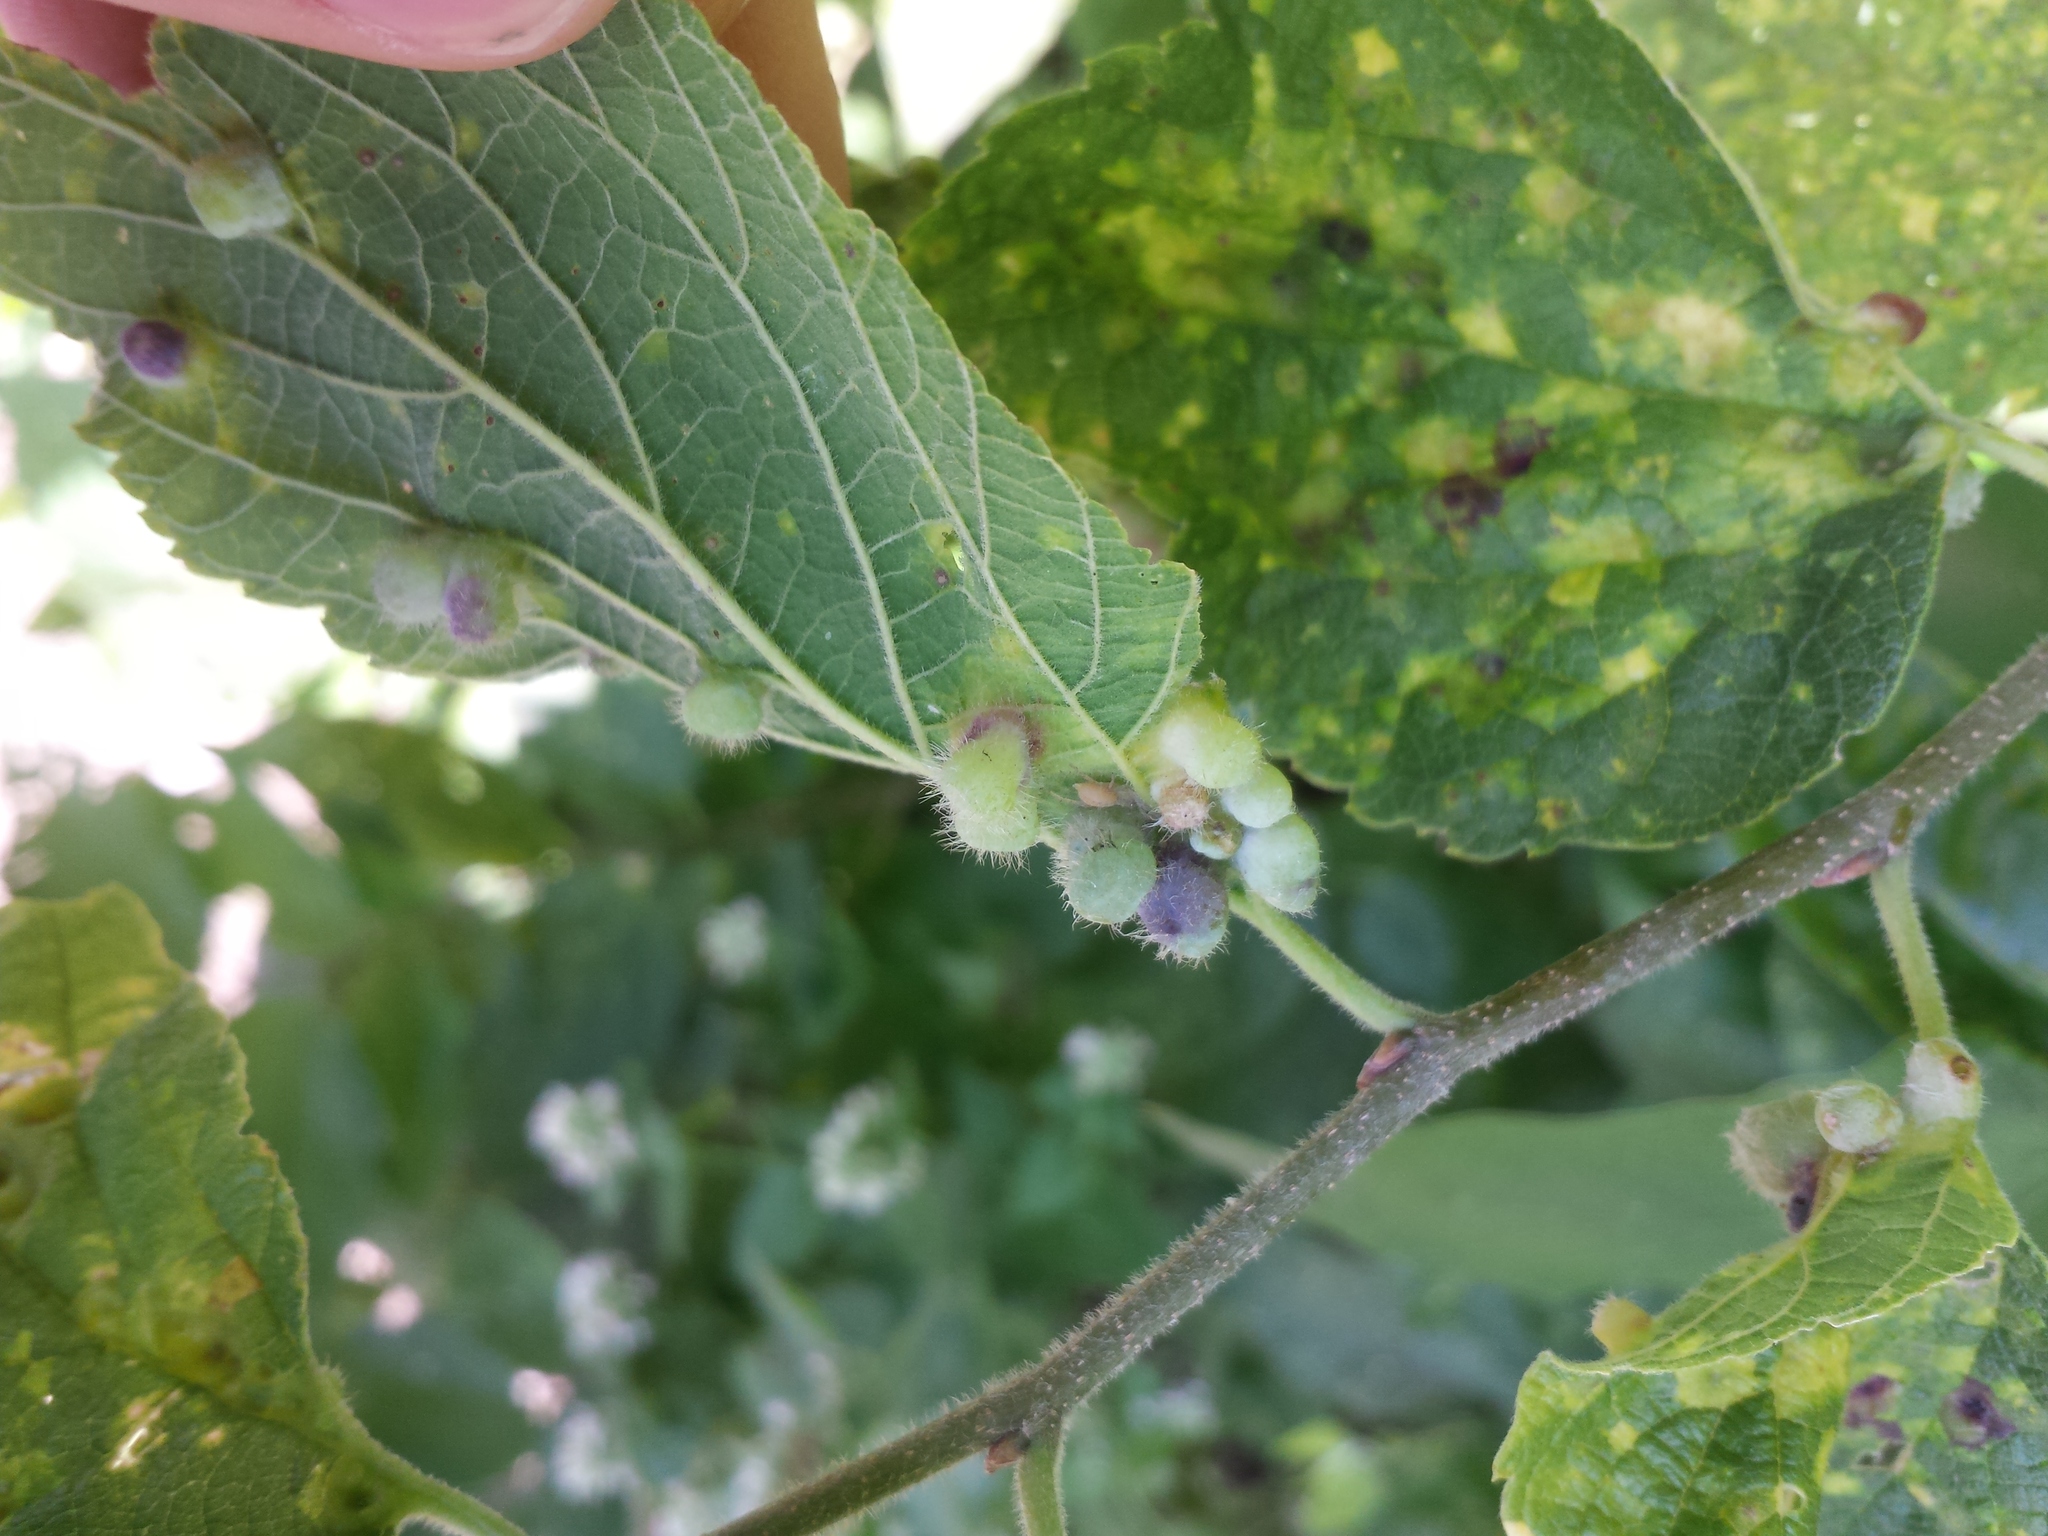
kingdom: Animalia
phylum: Arthropoda
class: Insecta
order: Hemiptera
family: Aphalaridae
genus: Pachypsylla
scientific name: Pachypsylla celtidismamma
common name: Hackberry nipplegall psyllid
